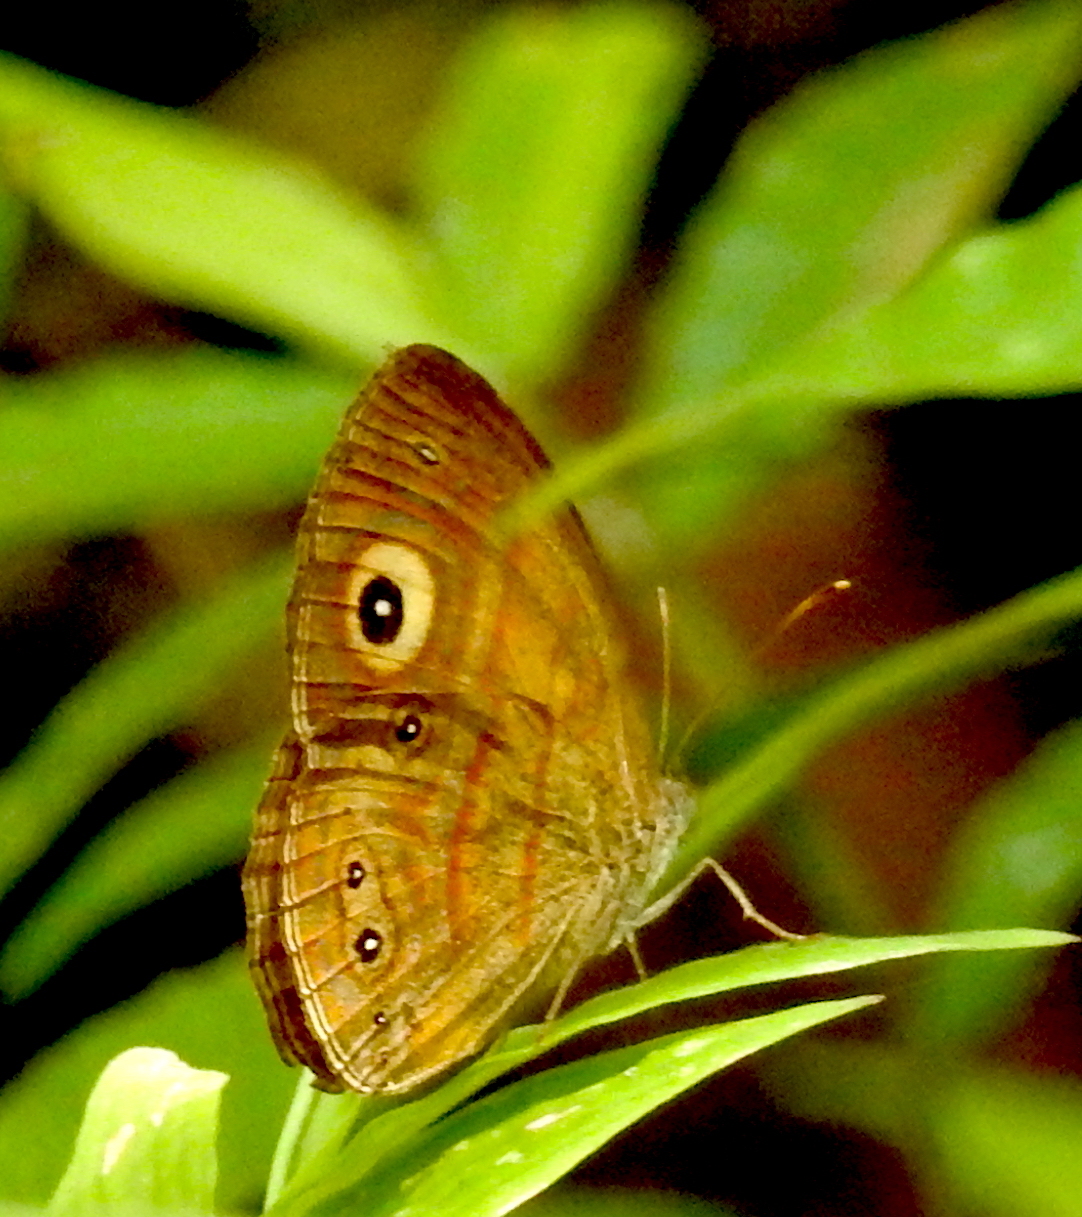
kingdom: Animalia
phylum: Arthropoda
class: Insecta
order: Lepidoptera
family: Nymphalidae
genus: Mycalesis
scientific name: Mycalesis patnia
